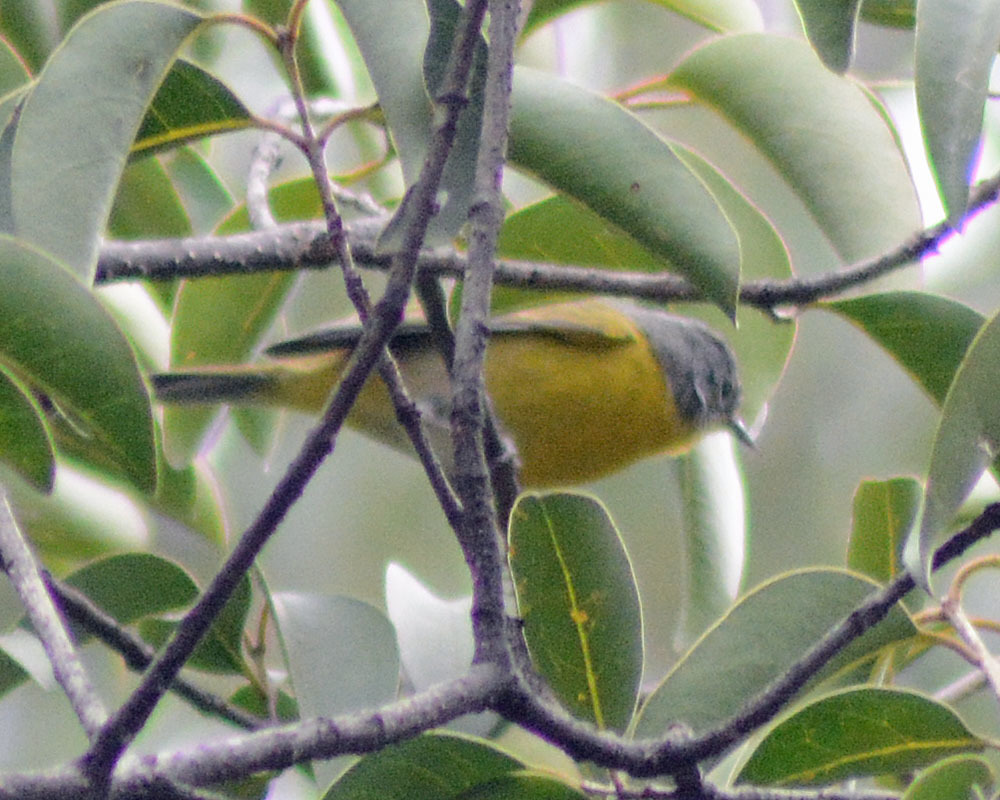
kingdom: Animalia
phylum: Chordata
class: Aves
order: Passeriformes
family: Parulidae
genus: Leiothlypis
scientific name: Leiothlypis ruficapilla
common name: Nashville warbler
